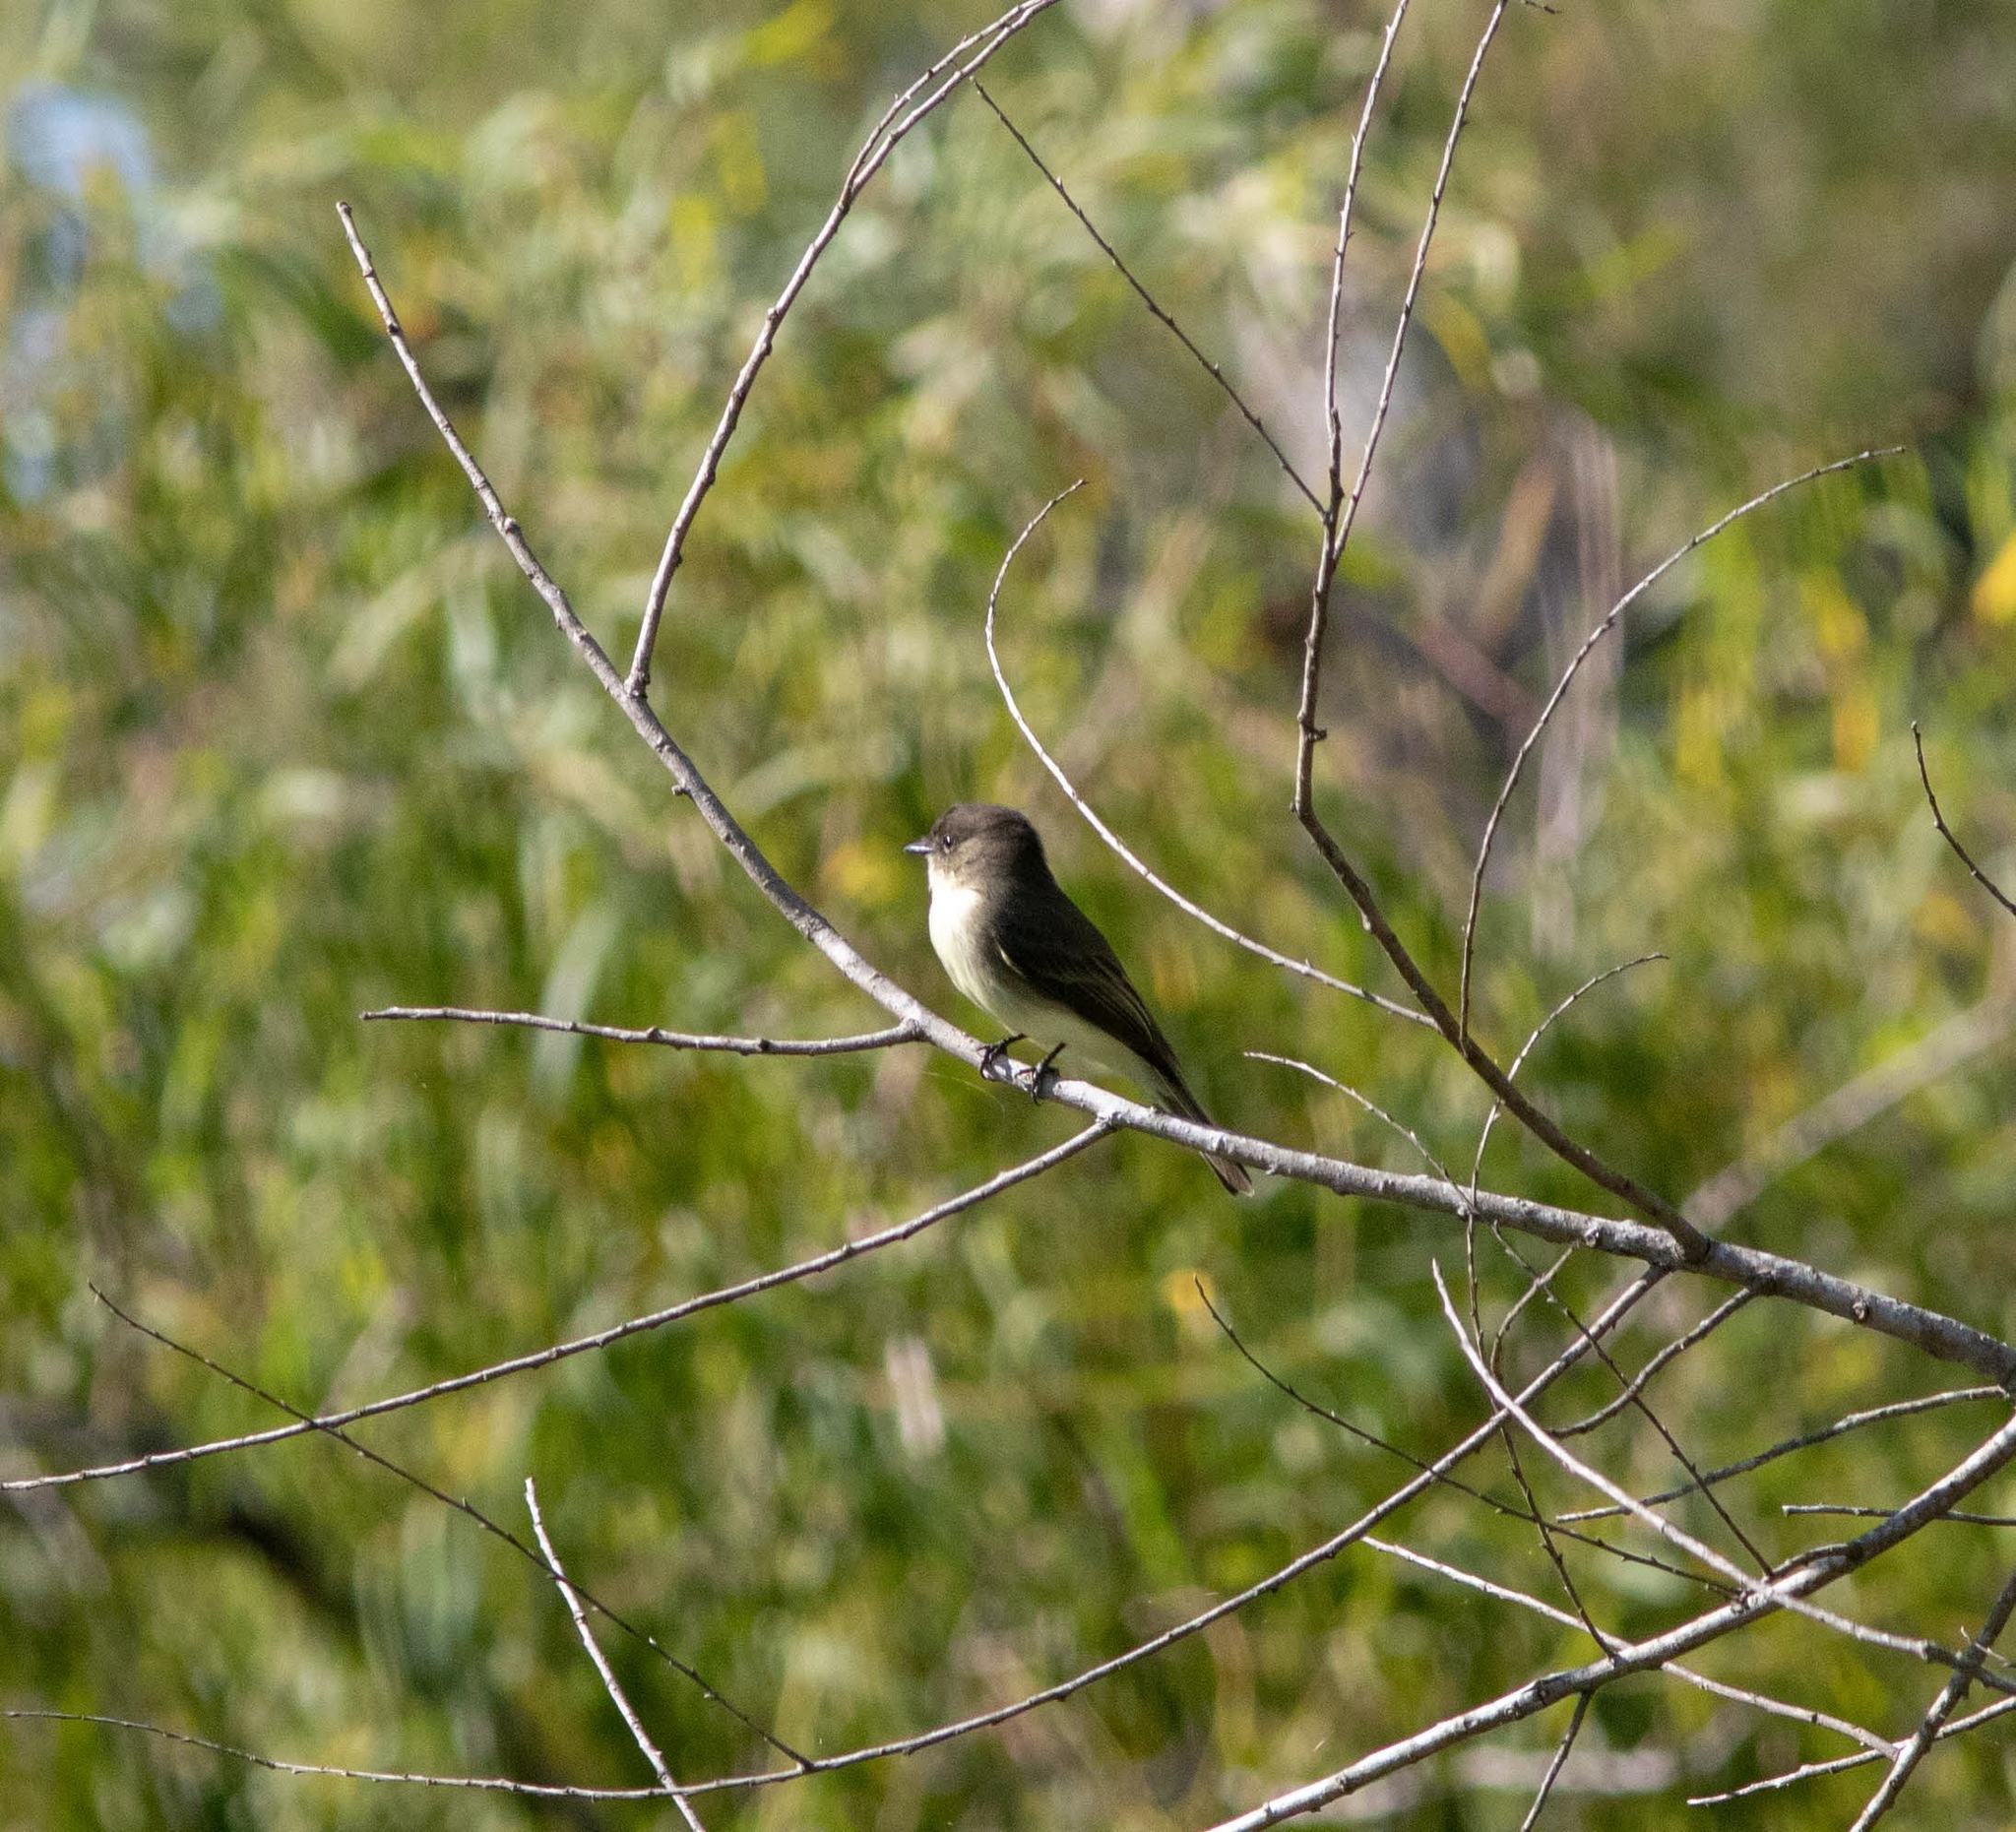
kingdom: Animalia
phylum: Chordata
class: Aves
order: Passeriformes
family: Tyrannidae
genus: Sayornis
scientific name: Sayornis phoebe
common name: Eastern phoebe
